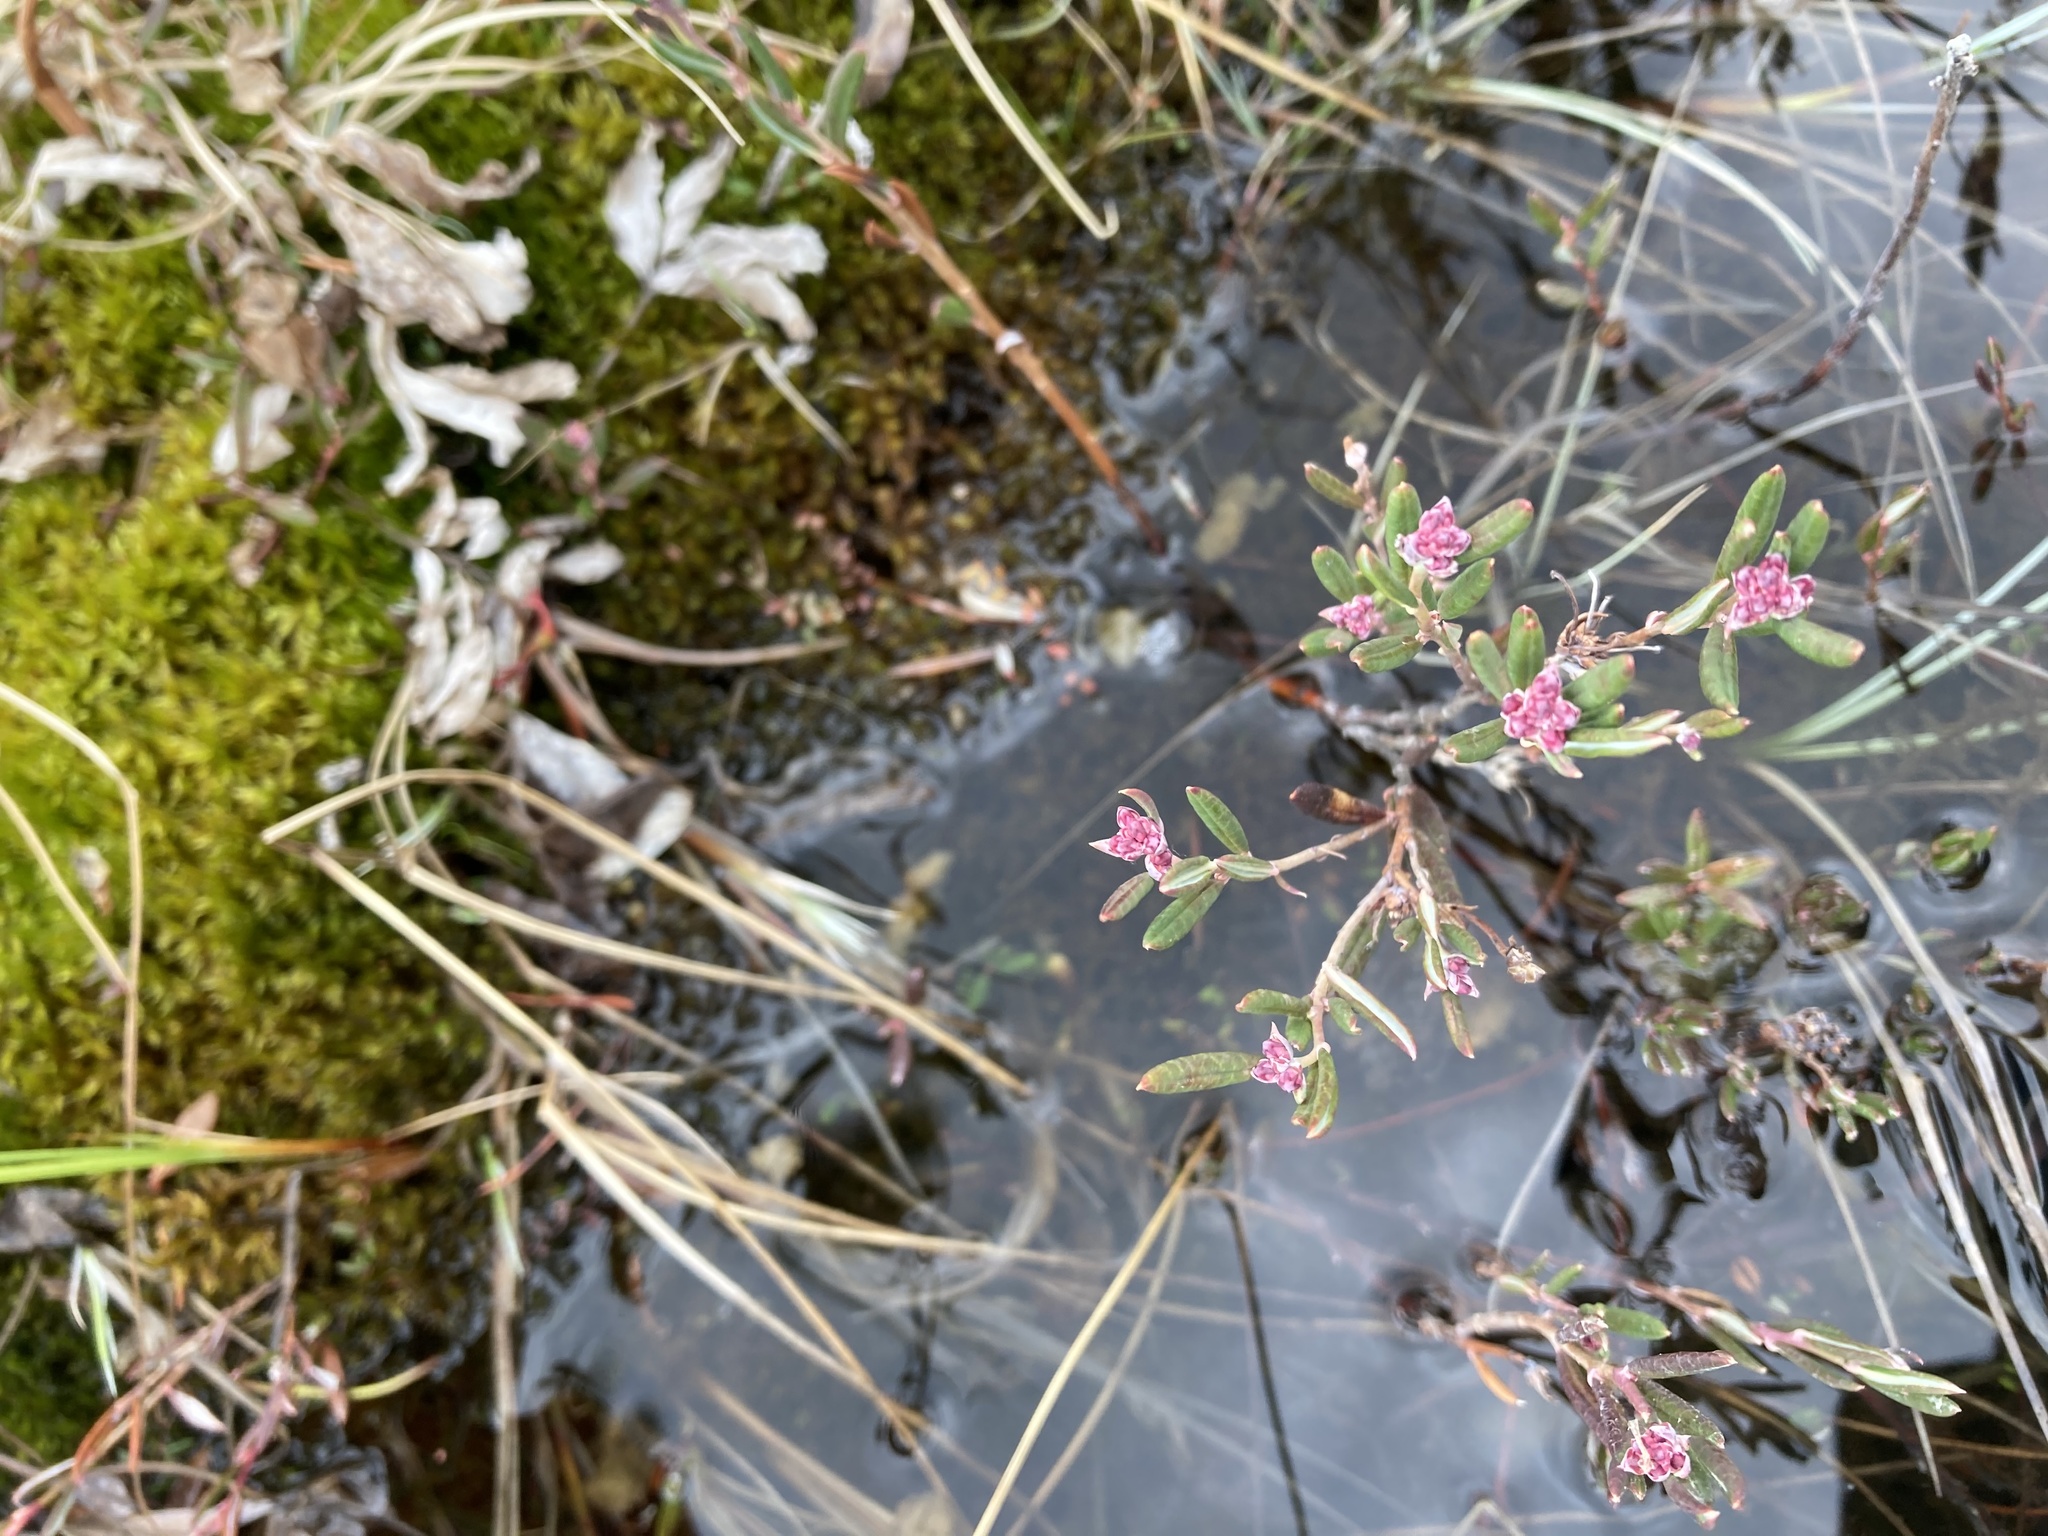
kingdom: Plantae
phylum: Tracheophyta
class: Magnoliopsida
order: Ericales
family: Ericaceae
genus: Andromeda
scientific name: Andromeda polifolia
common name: Bog-rosemary
